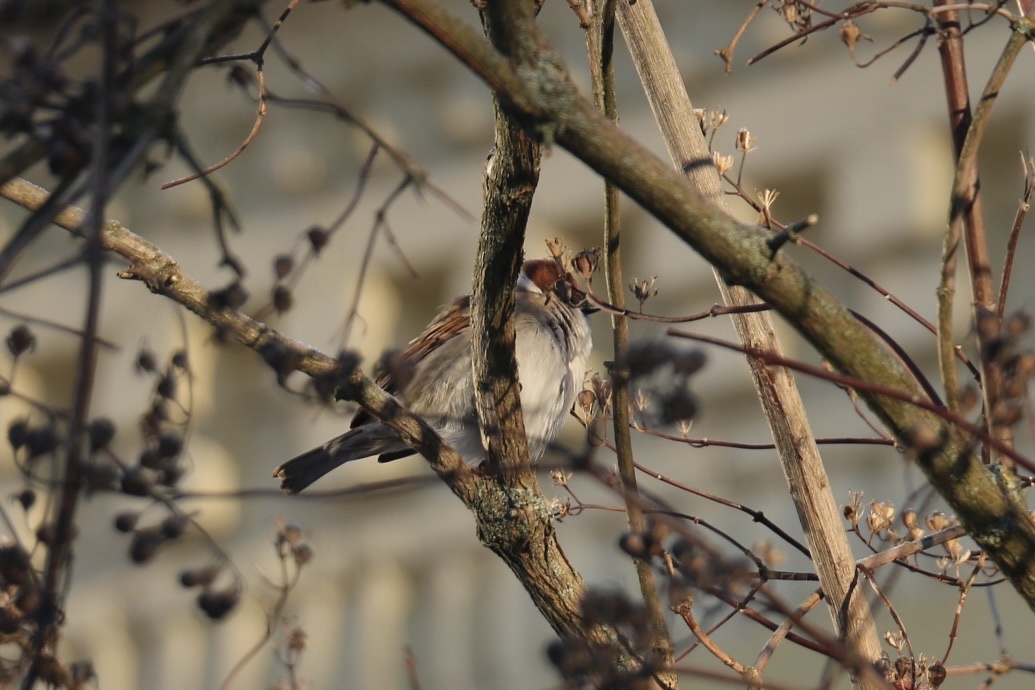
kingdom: Animalia
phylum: Chordata
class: Aves
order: Passeriformes
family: Passeridae
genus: Passer
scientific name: Passer montanus
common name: Eurasian tree sparrow
